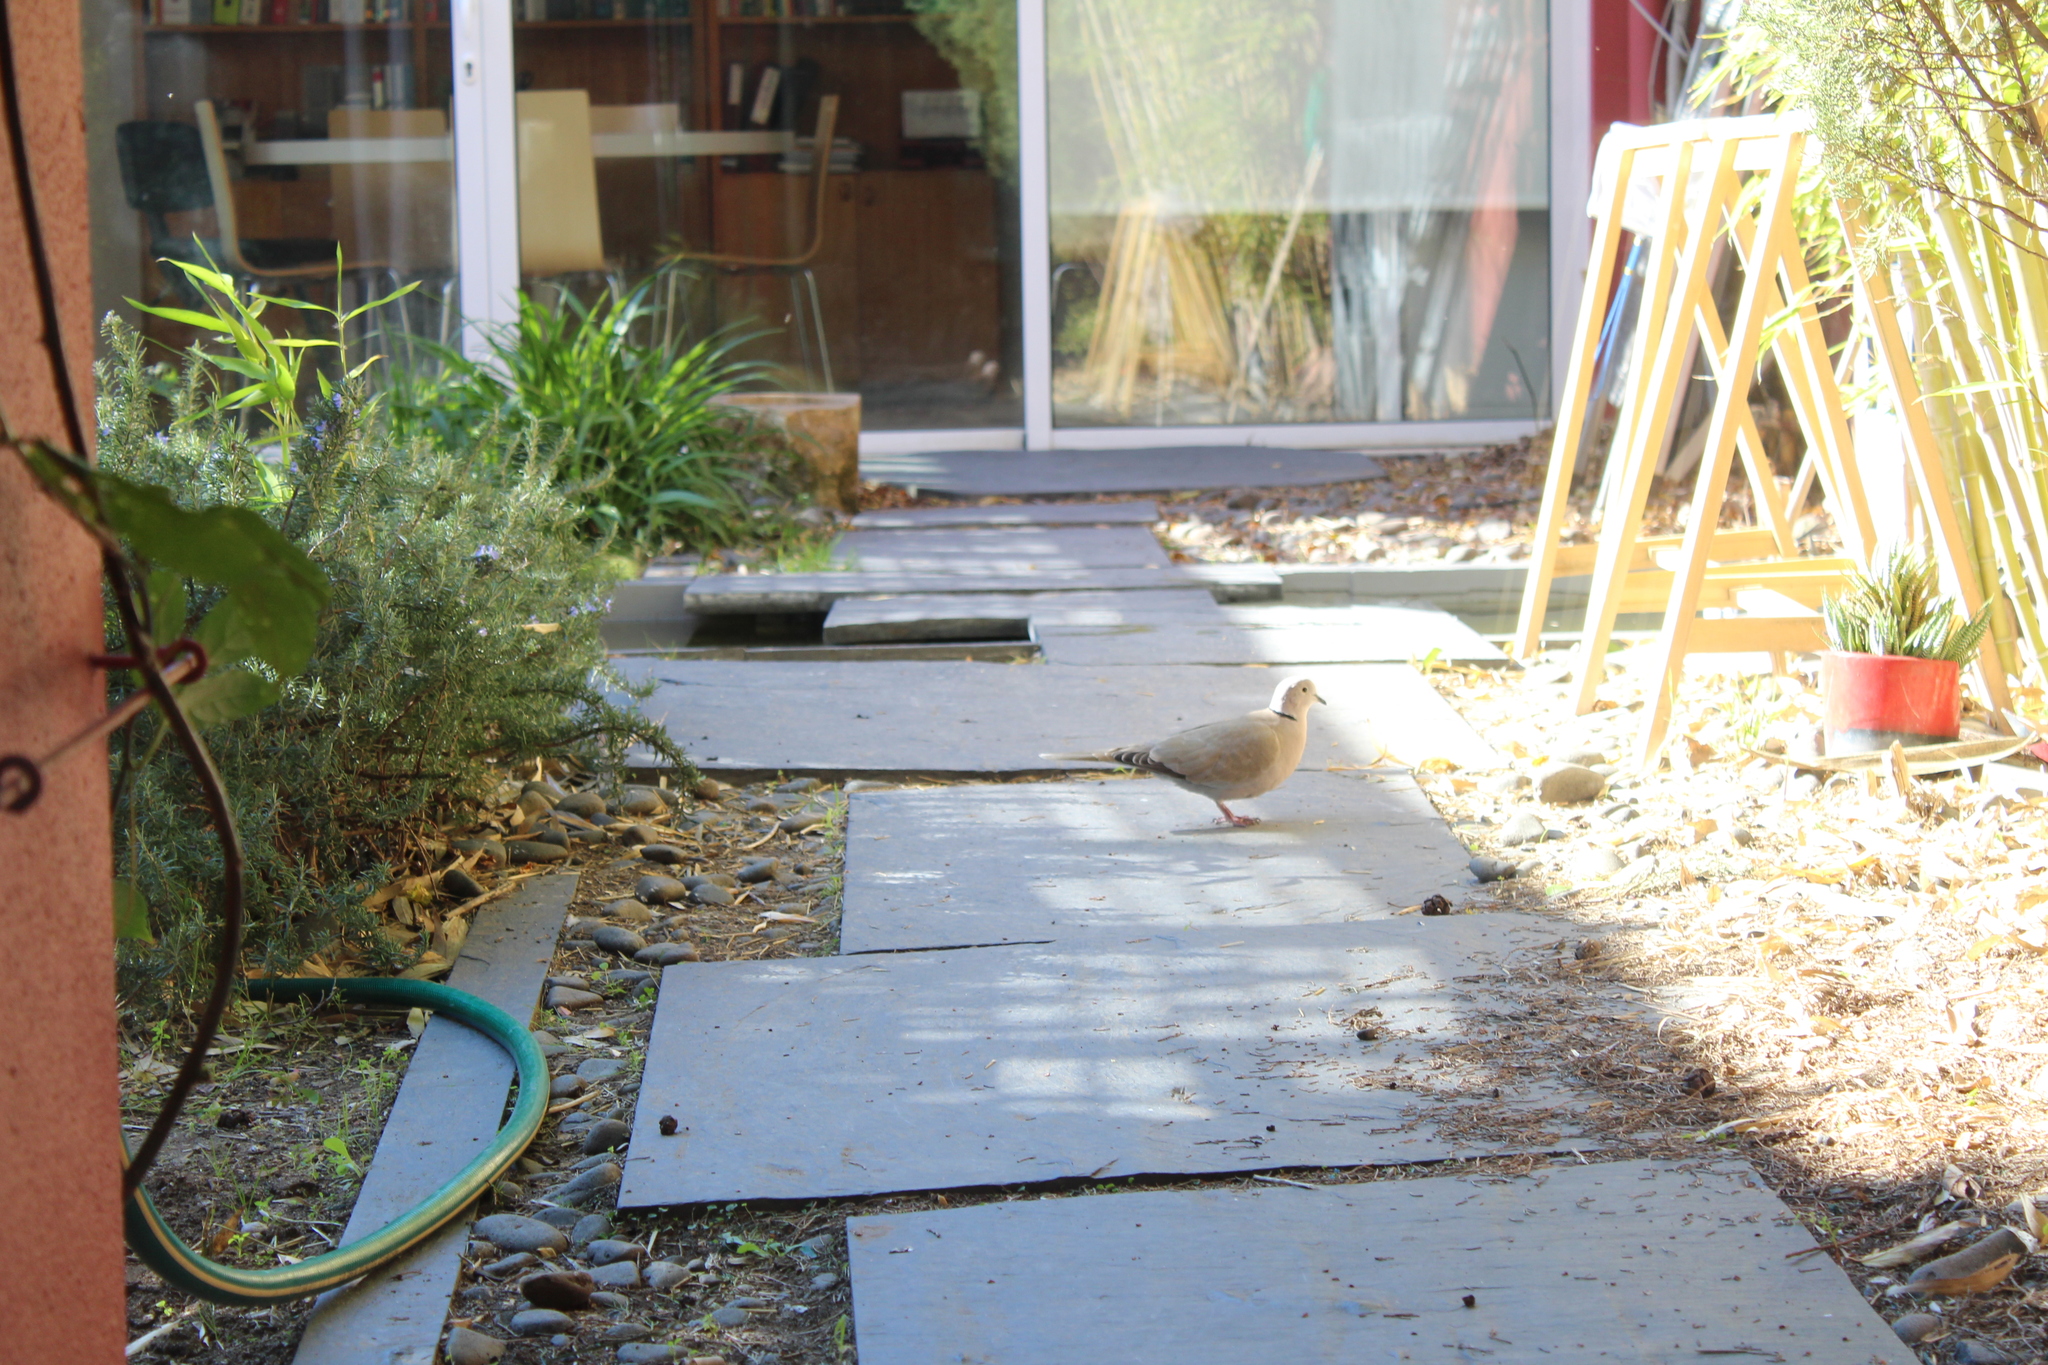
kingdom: Animalia
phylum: Chordata
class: Aves
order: Columbiformes
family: Columbidae
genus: Streptopelia
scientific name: Streptopelia decaocto
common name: Eurasian collared dove
